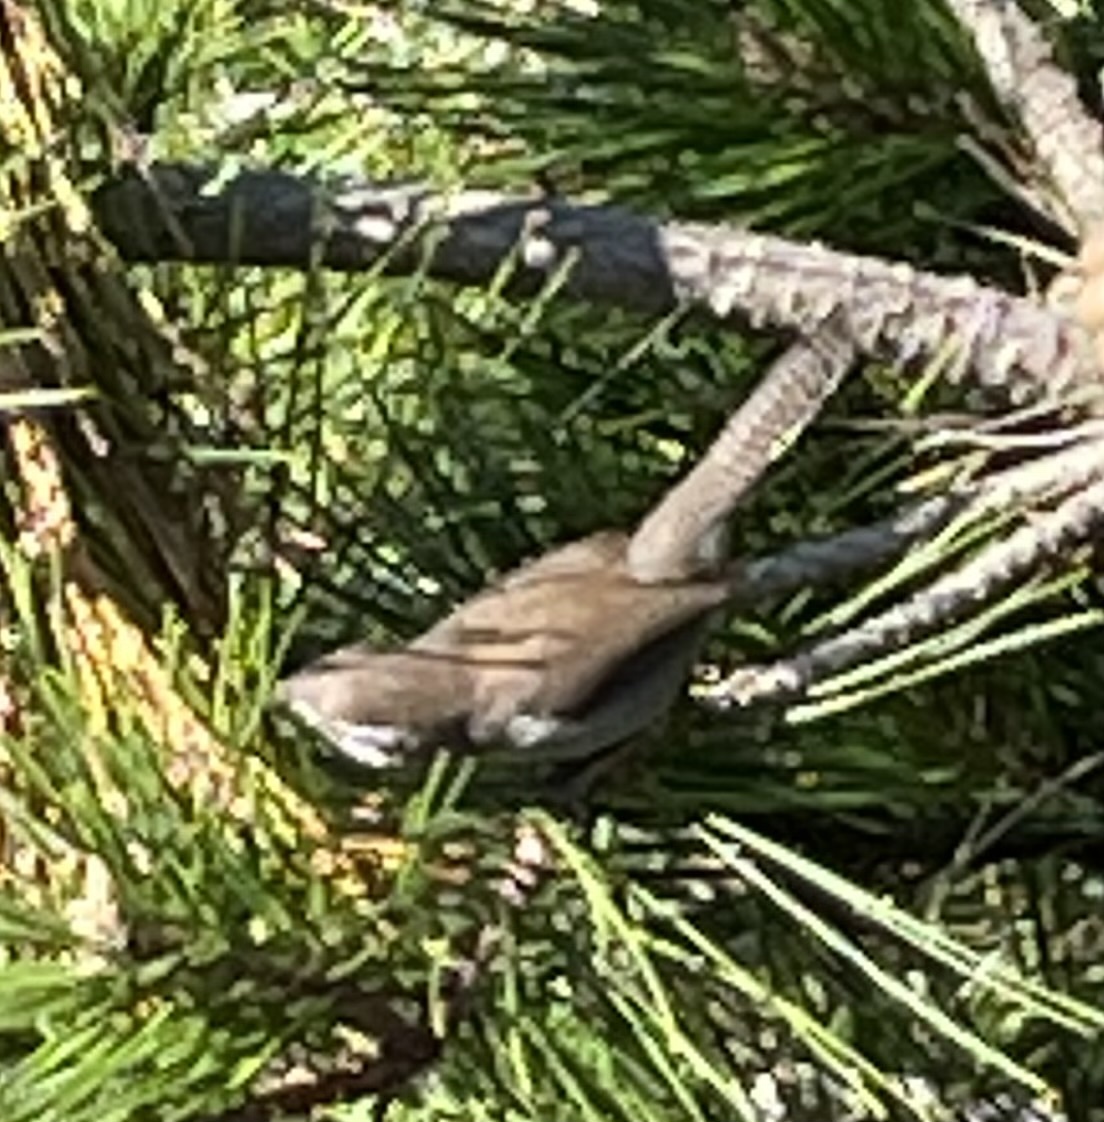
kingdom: Animalia
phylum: Chordata
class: Aves
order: Passeriformes
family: Troglodytidae
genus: Thryomanes
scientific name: Thryomanes bewickii
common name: Bewick's wren
